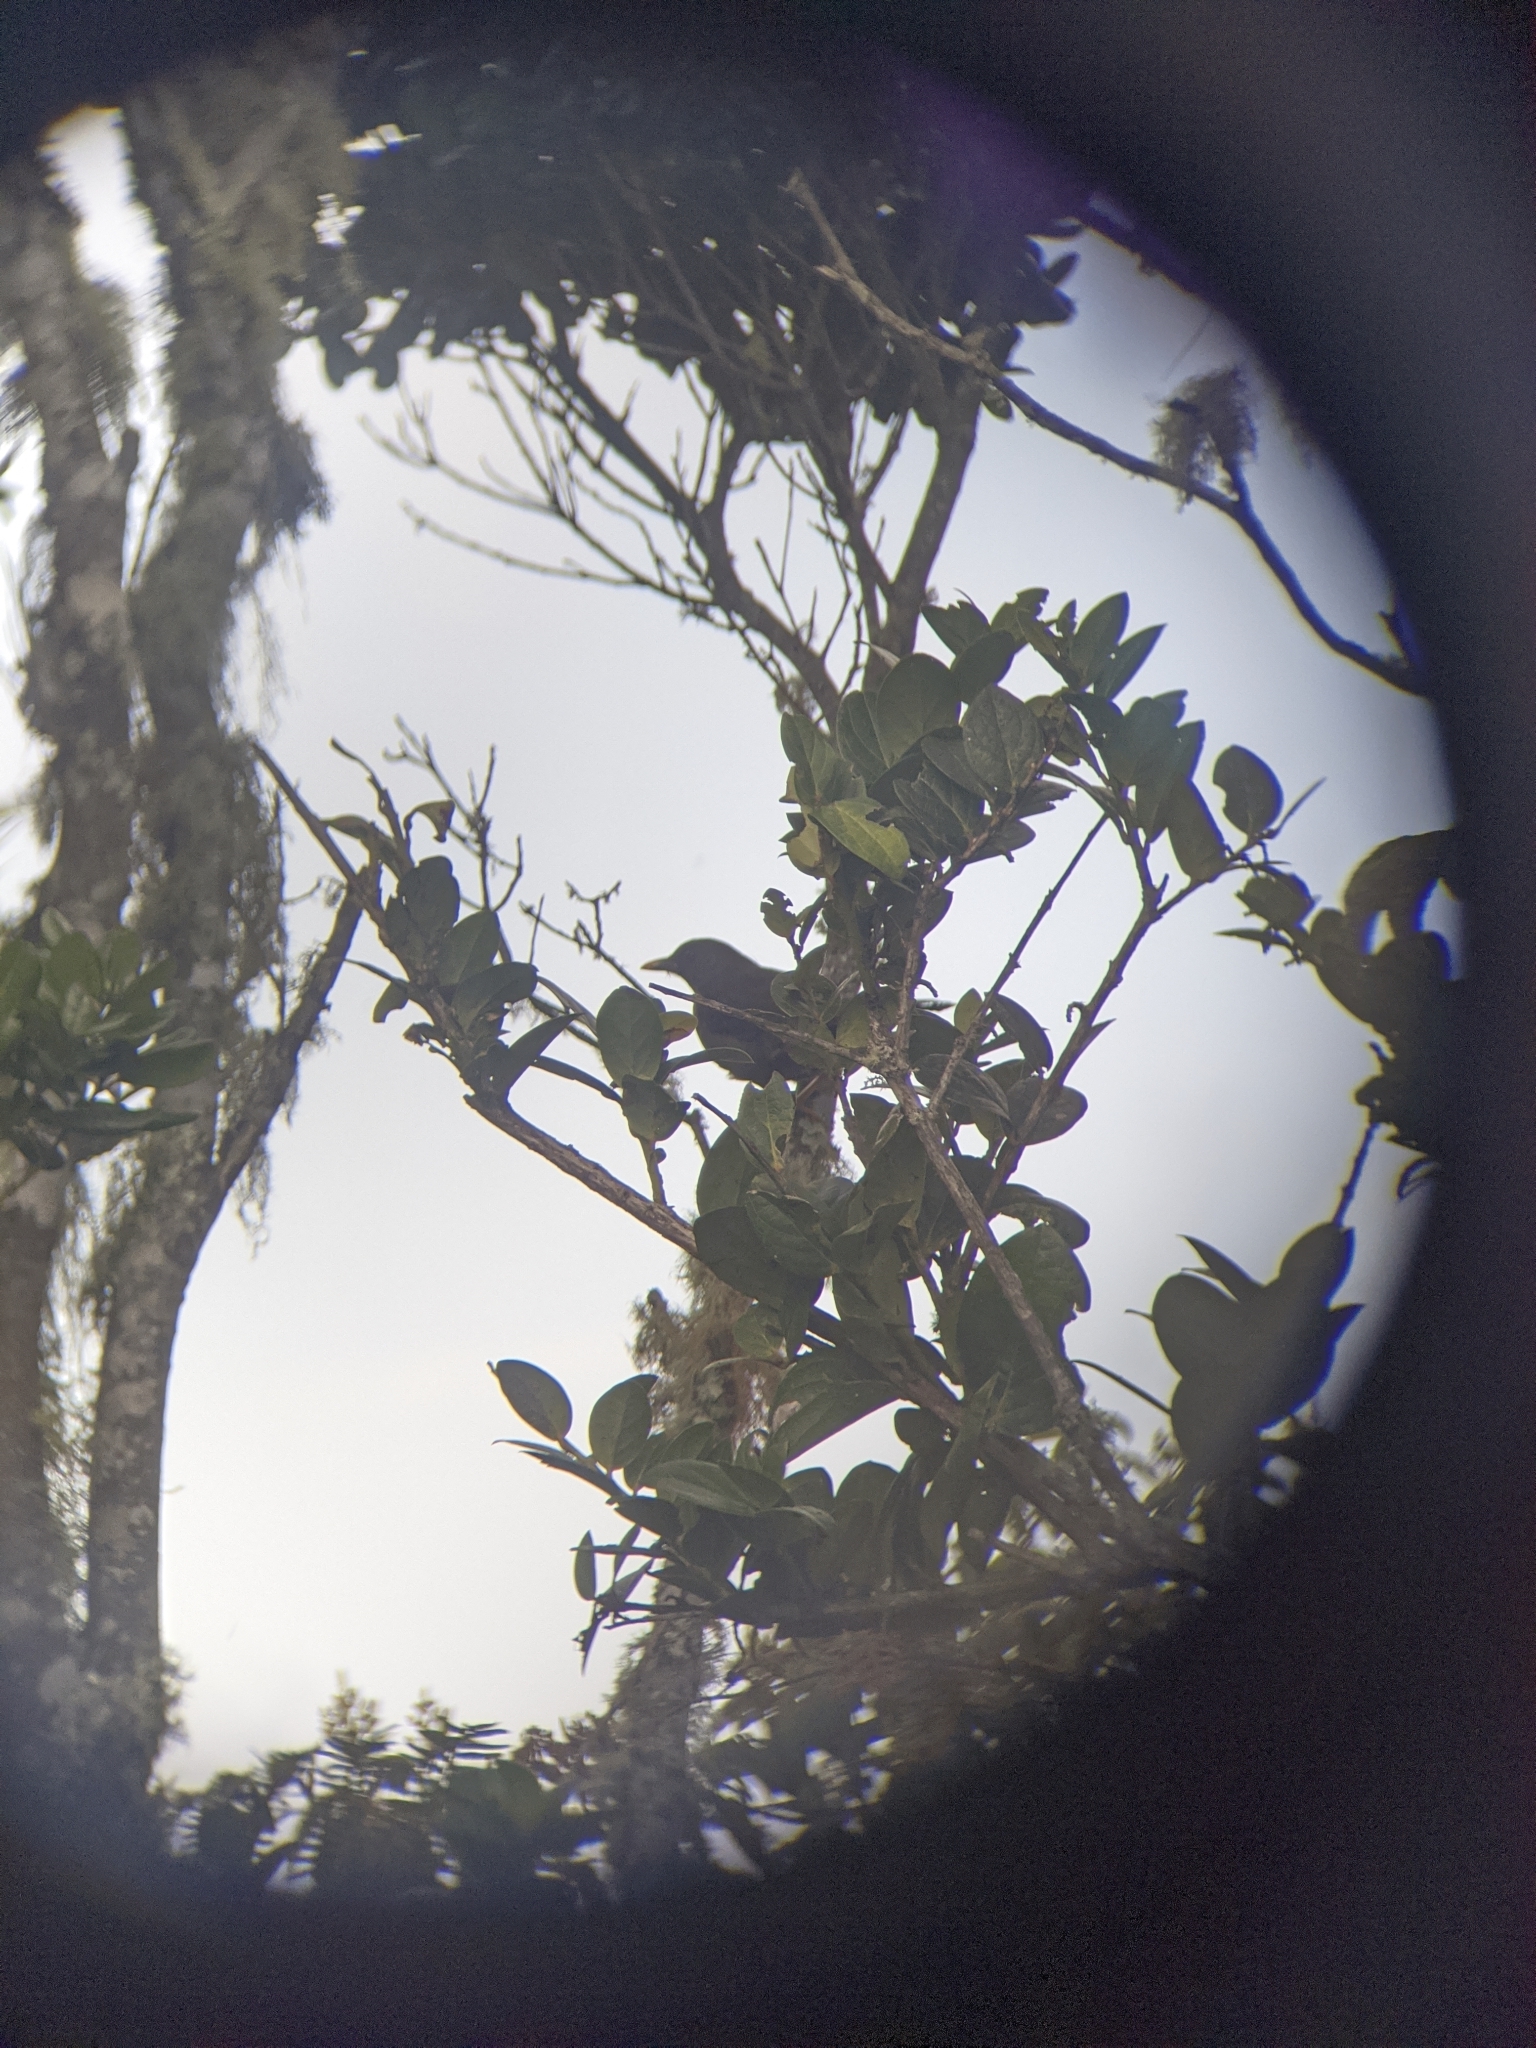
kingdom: Animalia
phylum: Chordata
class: Aves
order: Passeriformes
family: Turdidae
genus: Turdus
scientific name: Turdus fuscater
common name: Great thrush
